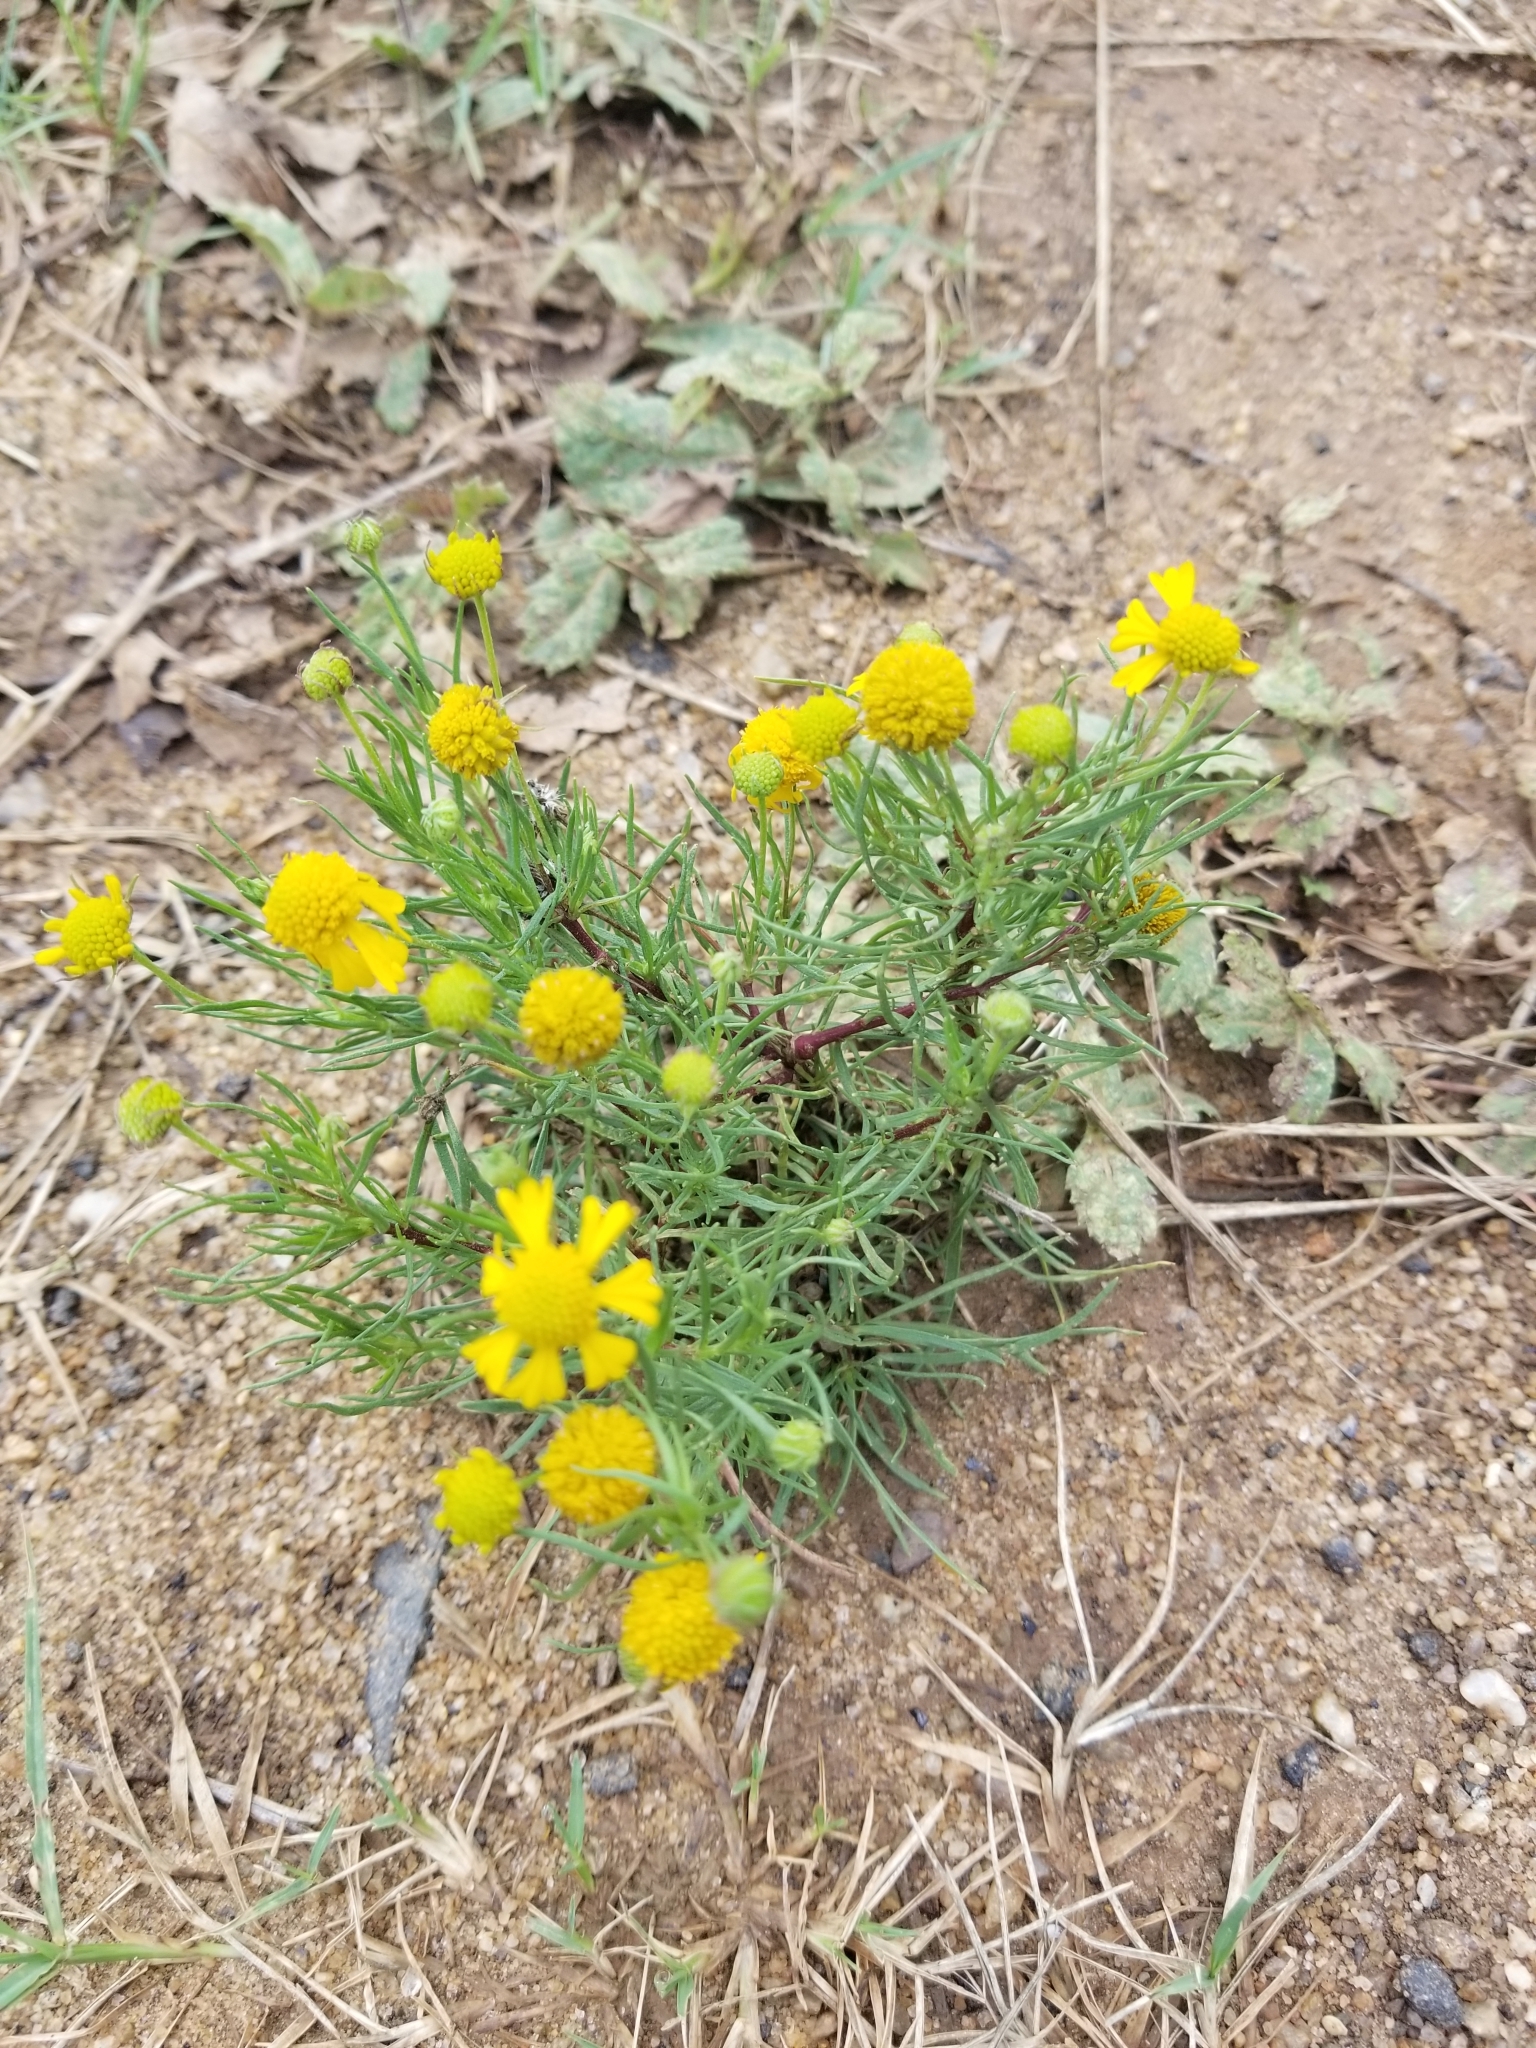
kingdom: Plantae
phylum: Tracheophyta
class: Magnoliopsida
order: Asterales
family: Asteraceae
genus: Helenium
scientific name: Helenium amarum
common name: Bitter sneezeweed
